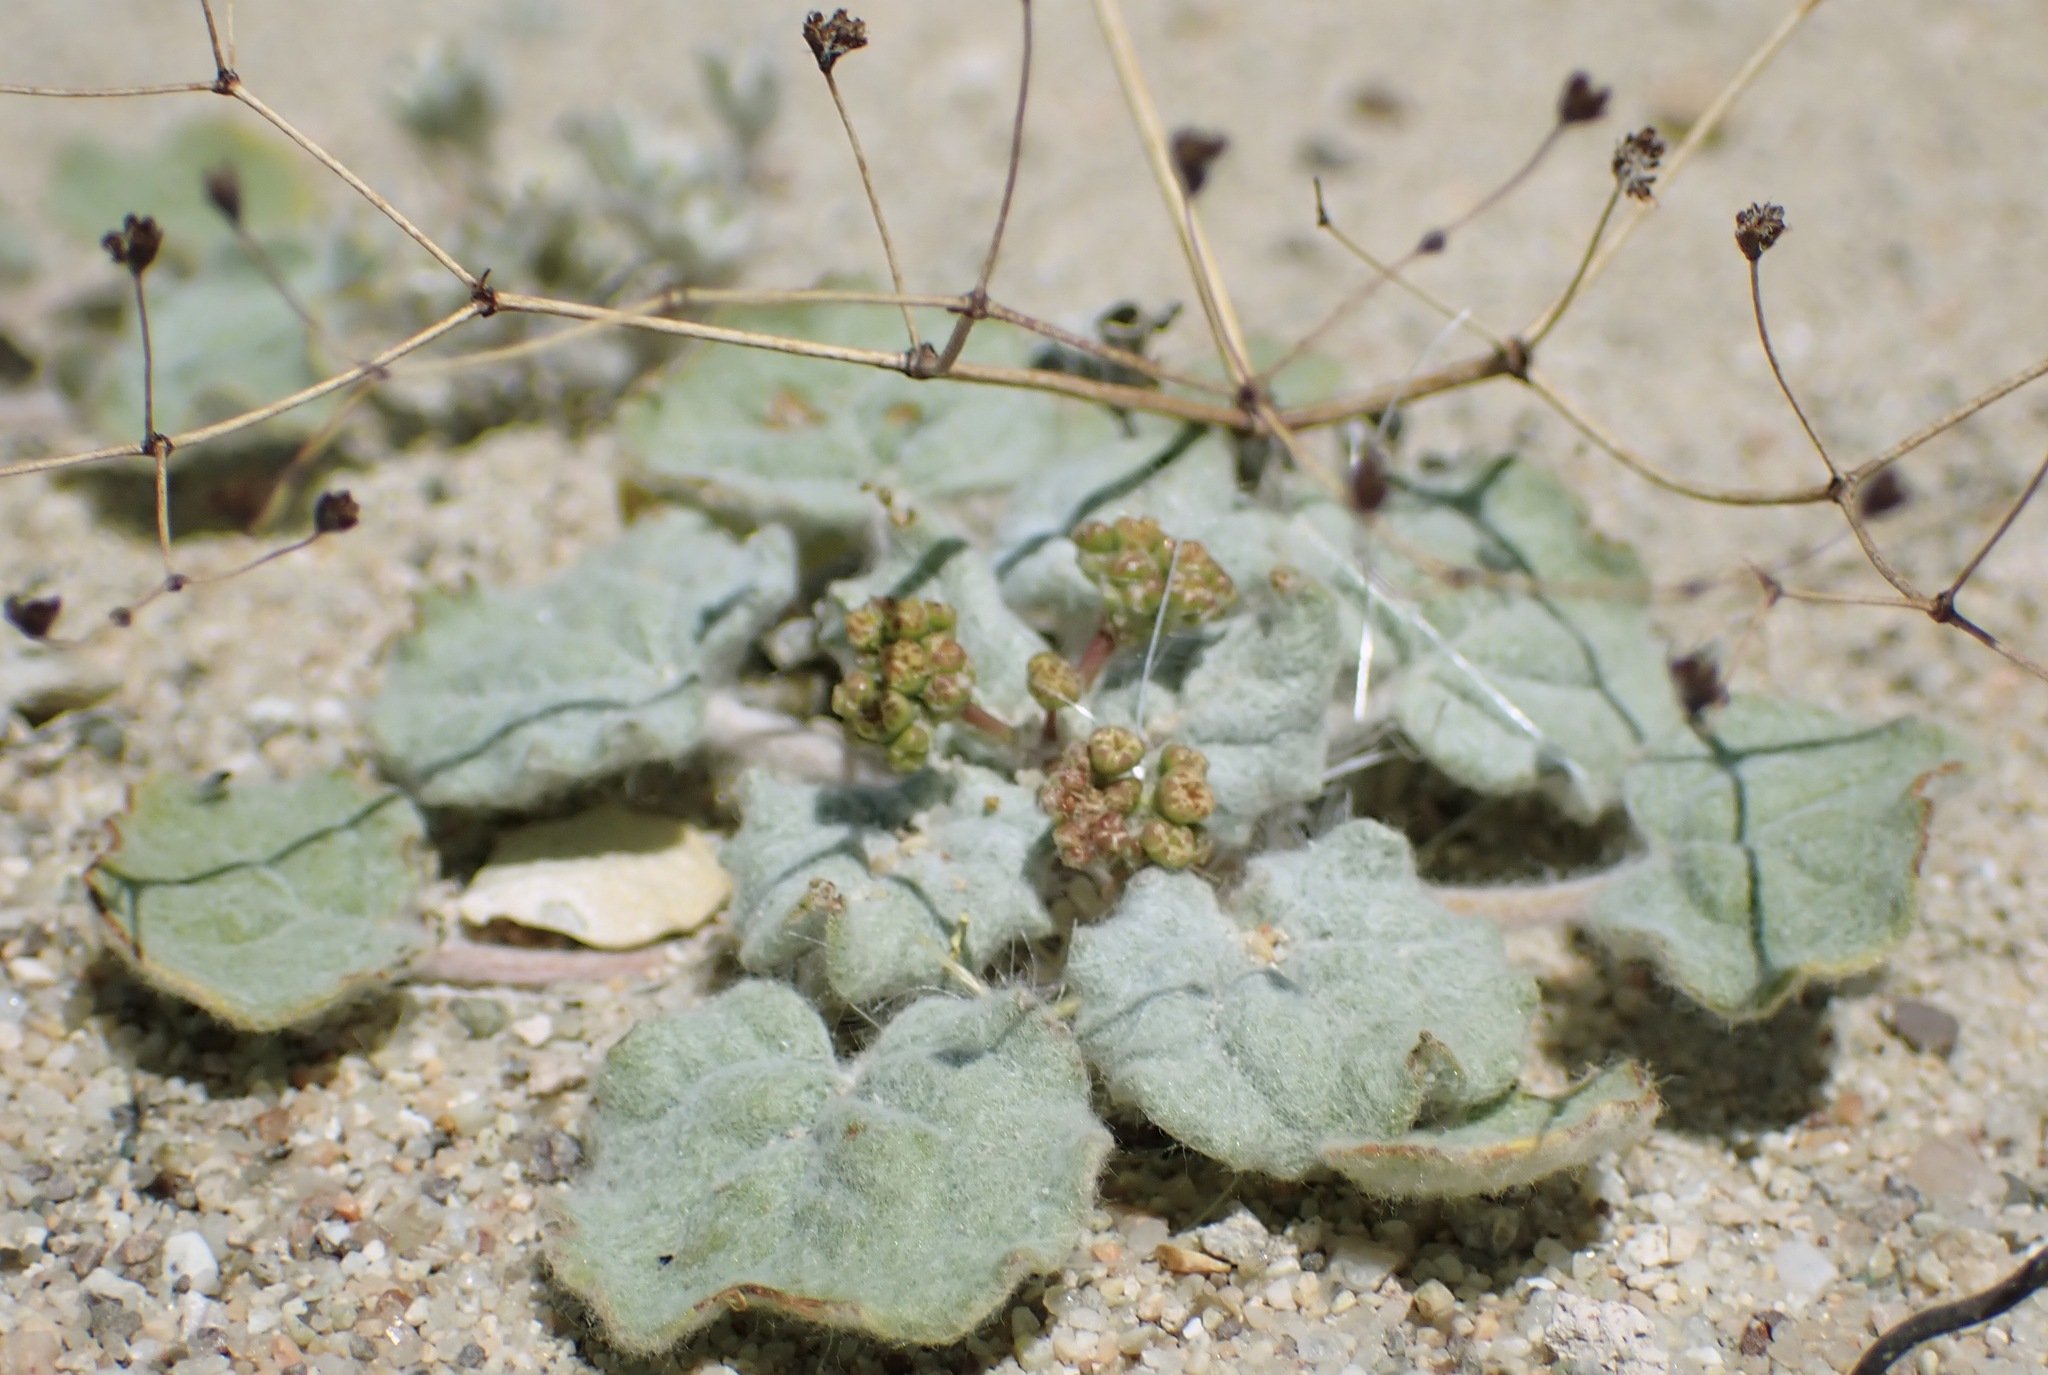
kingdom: Plantae
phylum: Tracheophyta
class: Magnoliopsida
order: Caryophyllales
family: Polygonaceae
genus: Eriogonum
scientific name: Eriogonum reniforme
